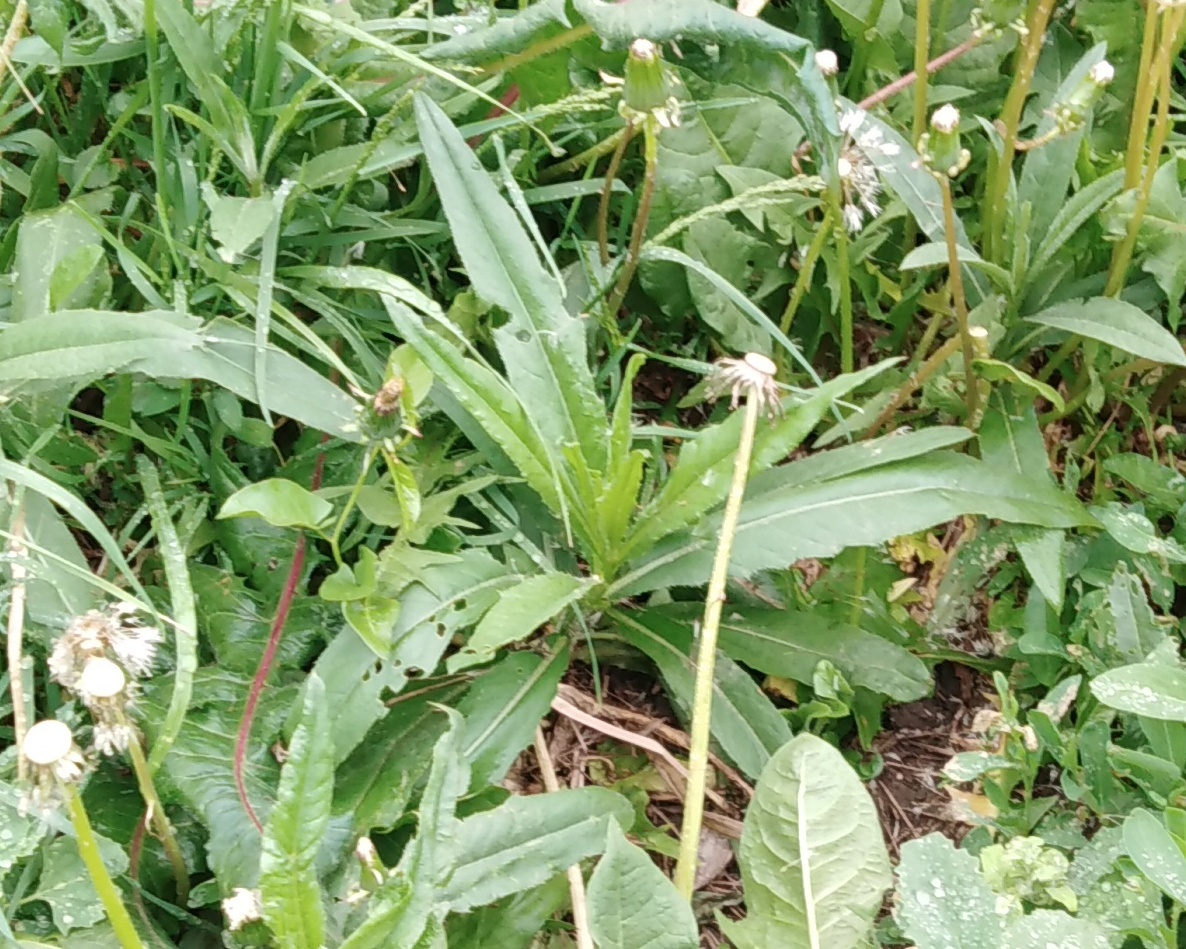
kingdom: Plantae
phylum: Tracheophyta
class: Magnoliopsida
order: Asterales
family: Asteraceae
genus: Cirsium
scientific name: Cirsium arvense
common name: Creeping thistle
